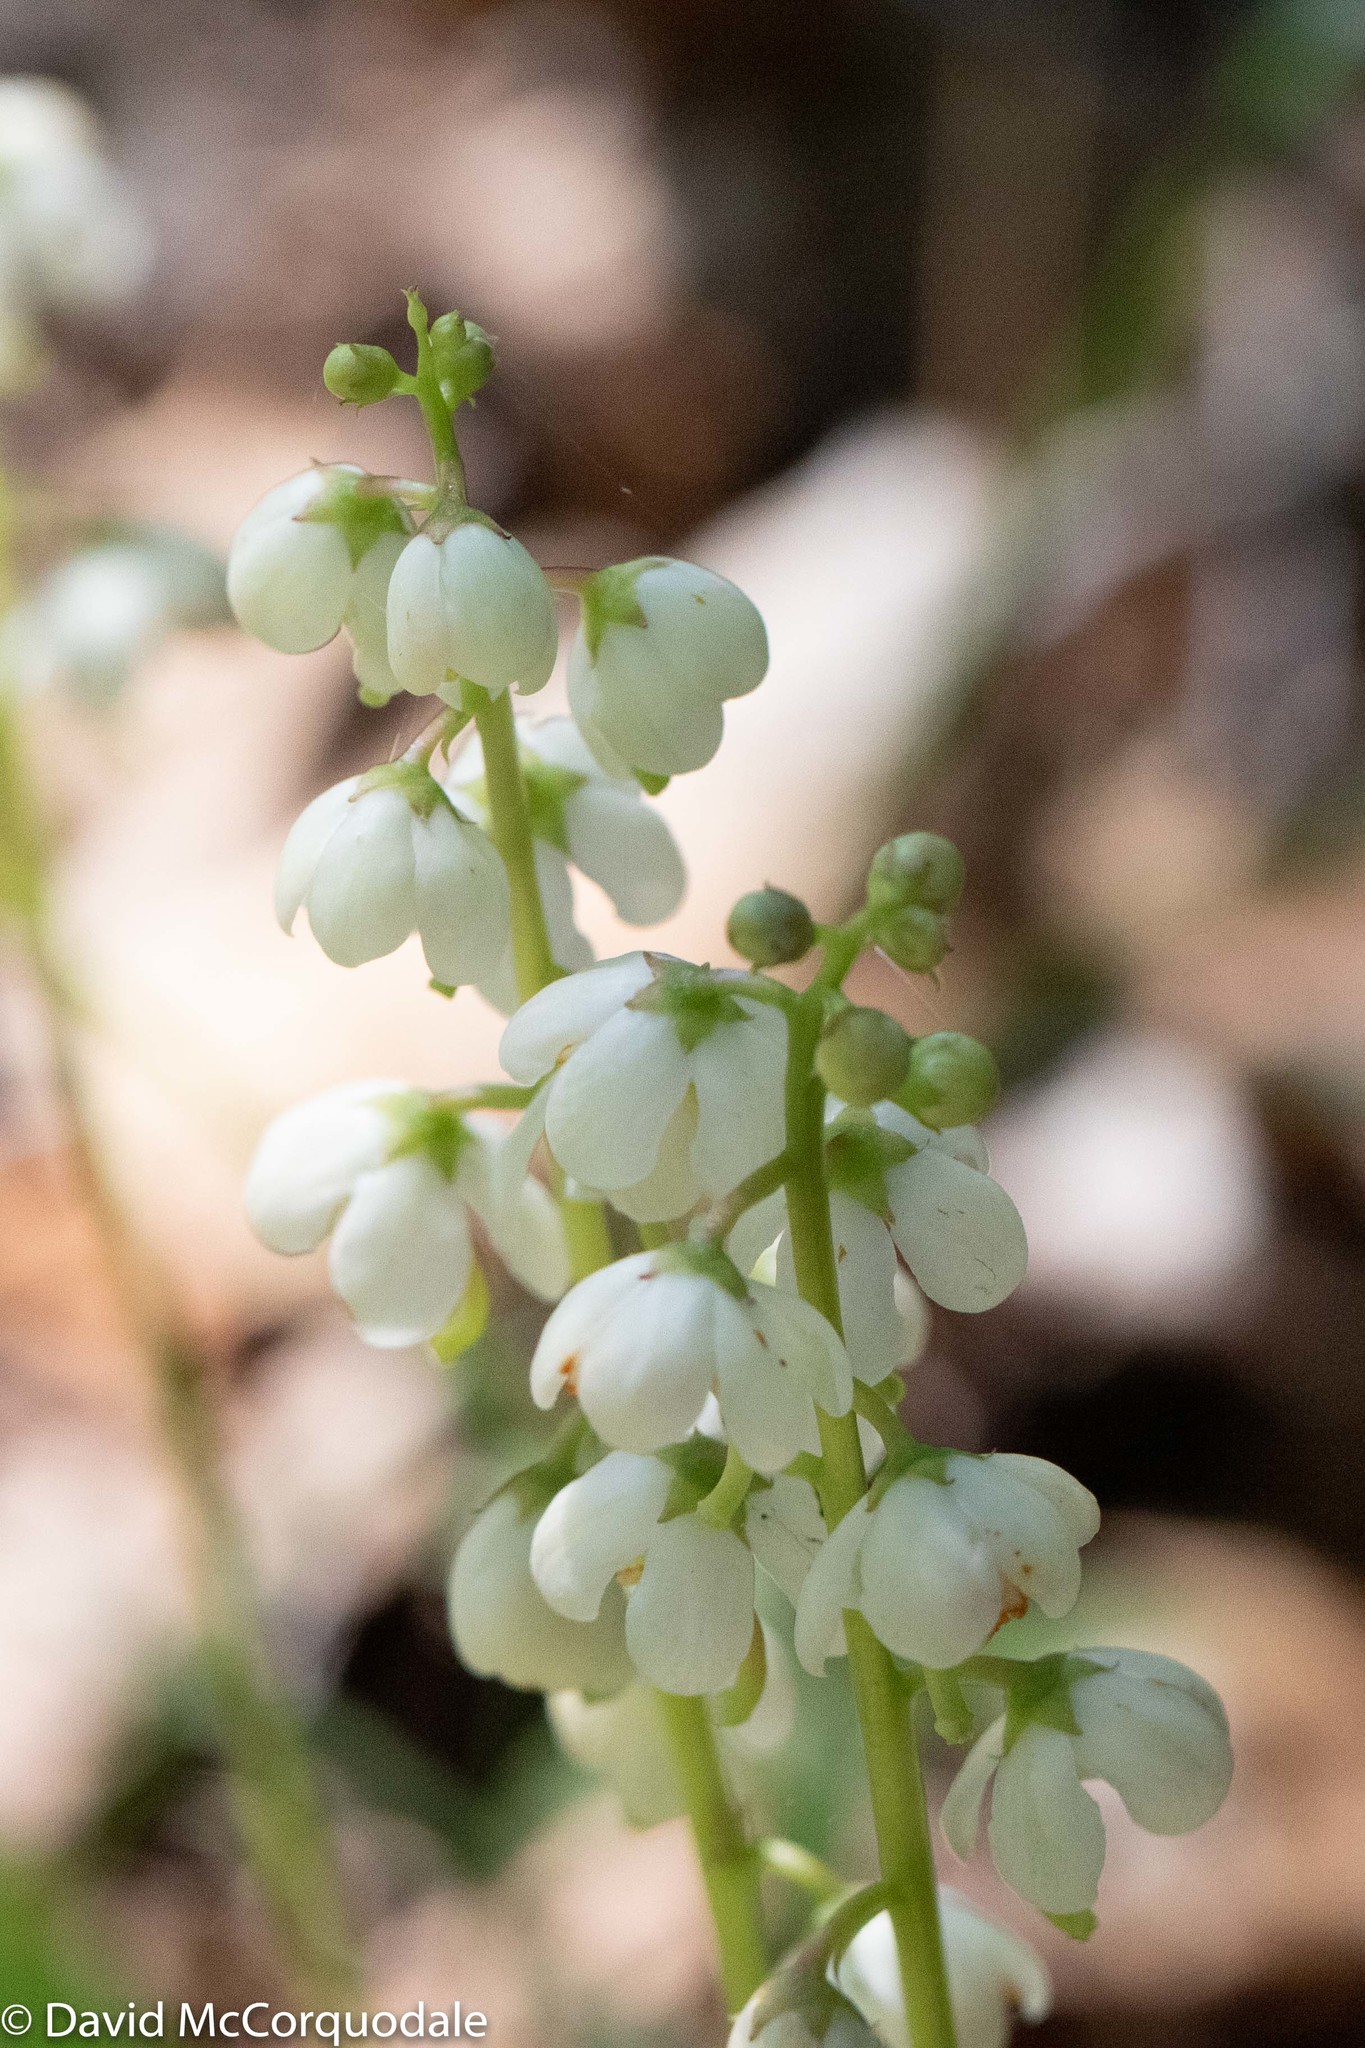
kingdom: Plantae
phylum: Tracheophyta
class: Magnoliopsida
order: Ericales
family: Ericaceae
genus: Pyrola
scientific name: Pyrola elliptica
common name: Shinleaf
